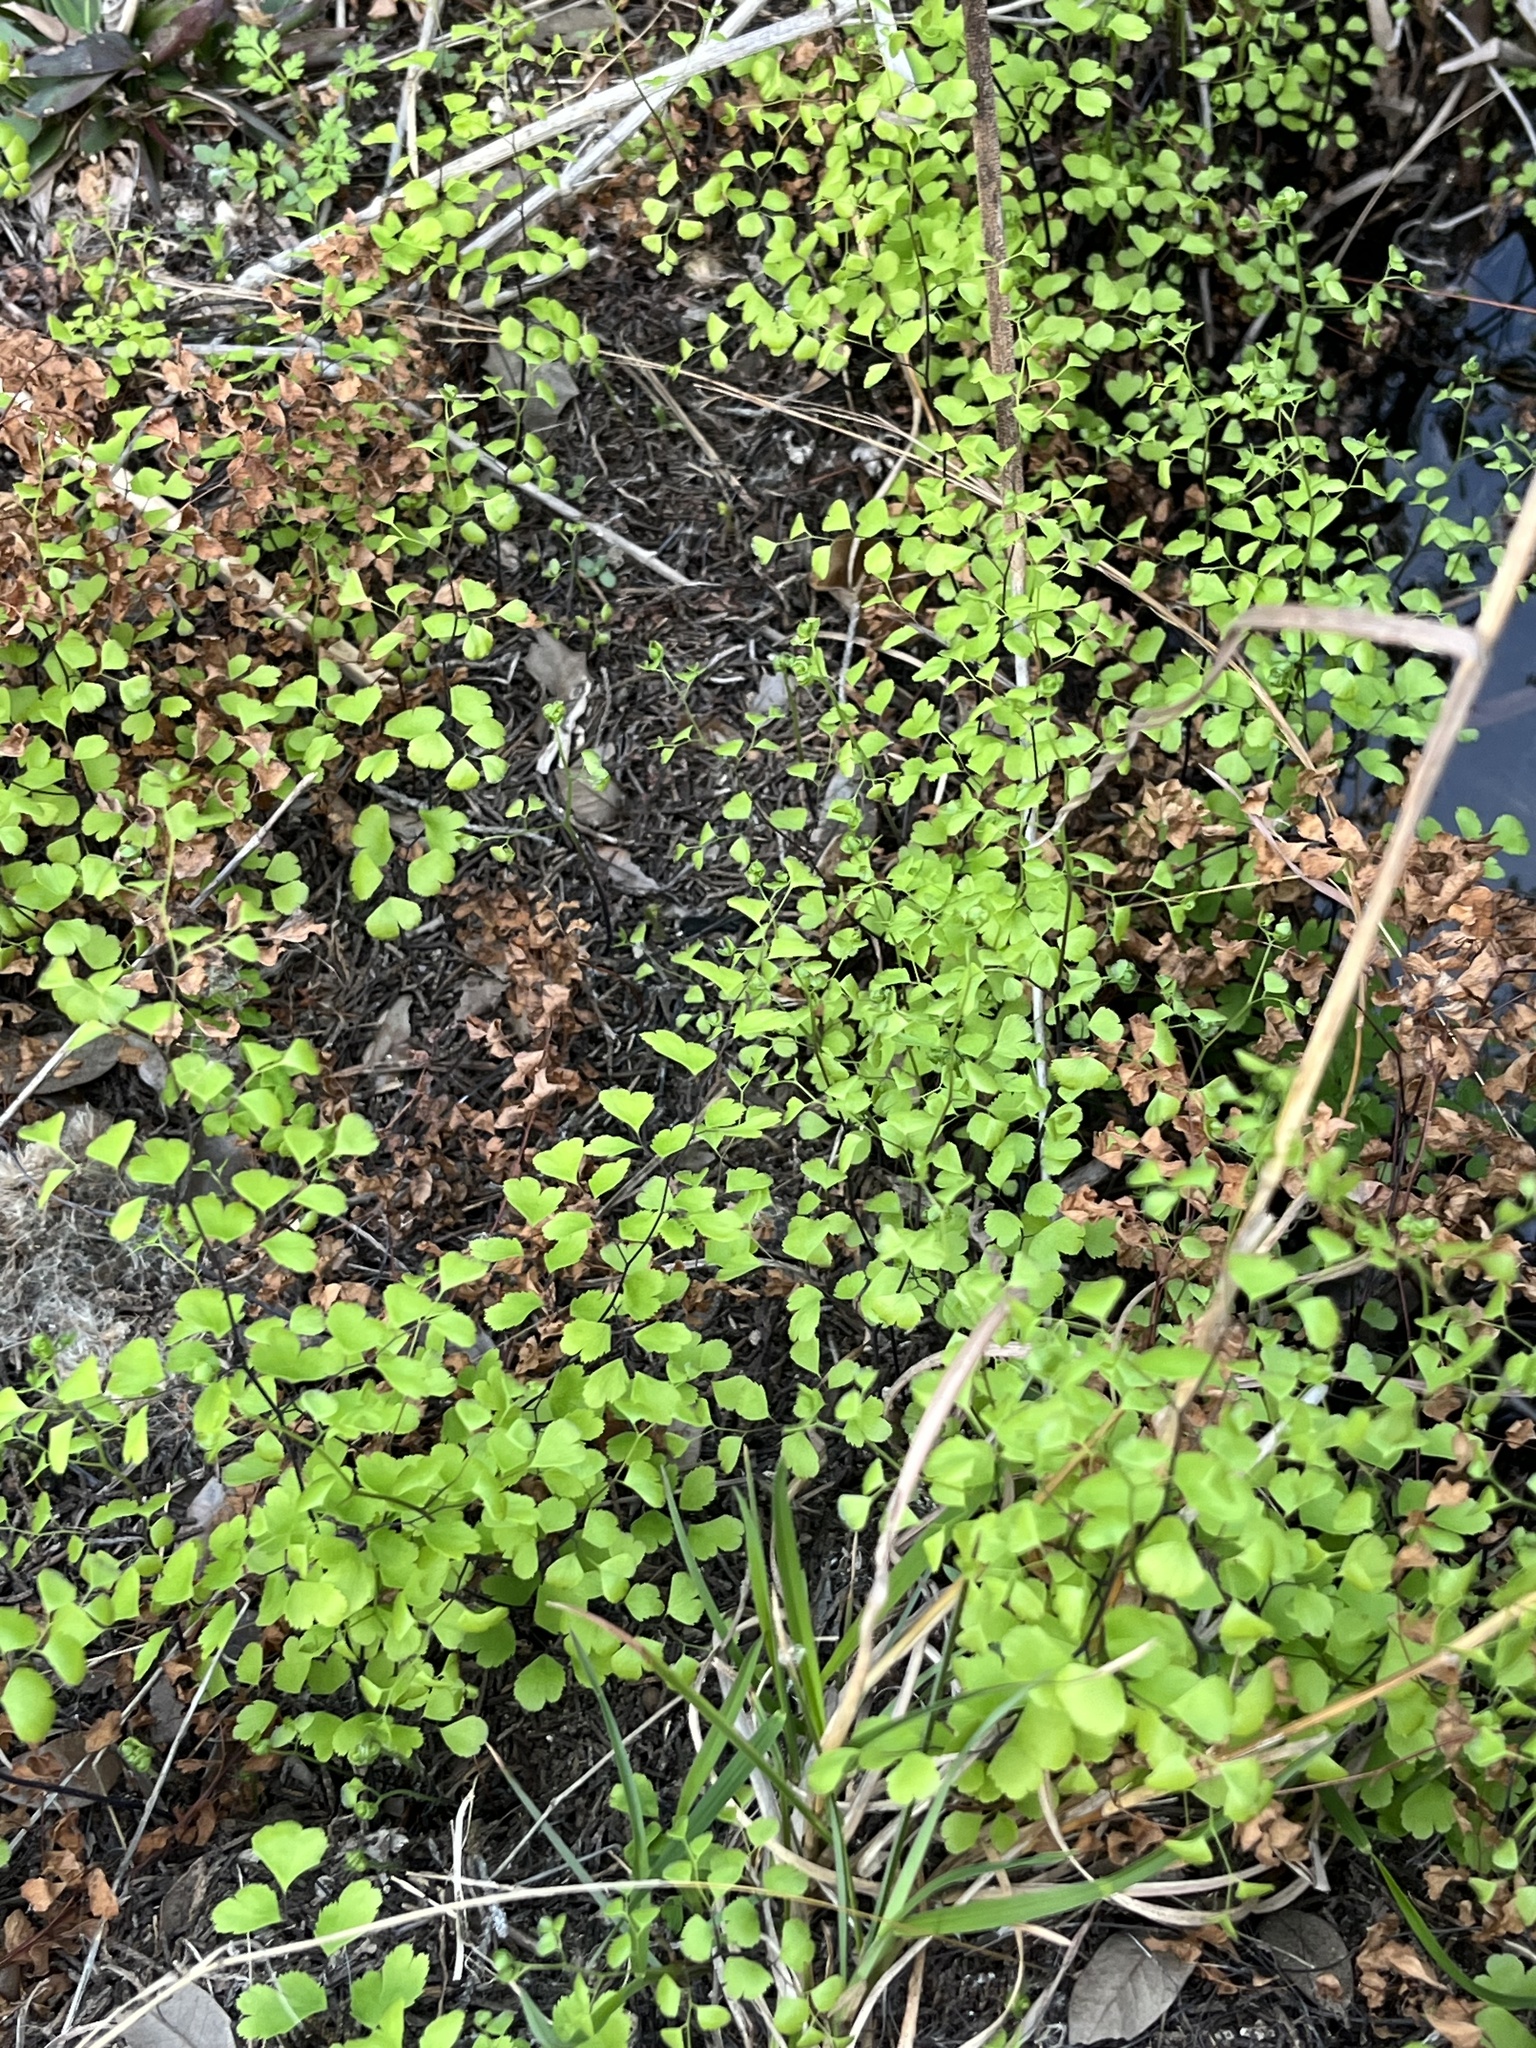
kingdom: Plantae
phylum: Tracheophyta
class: Polypodiopsida
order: Polypodiales
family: Pteridaceae
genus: Adiantum
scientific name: Adiantum capillus-veneris
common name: Maidenhair fern
